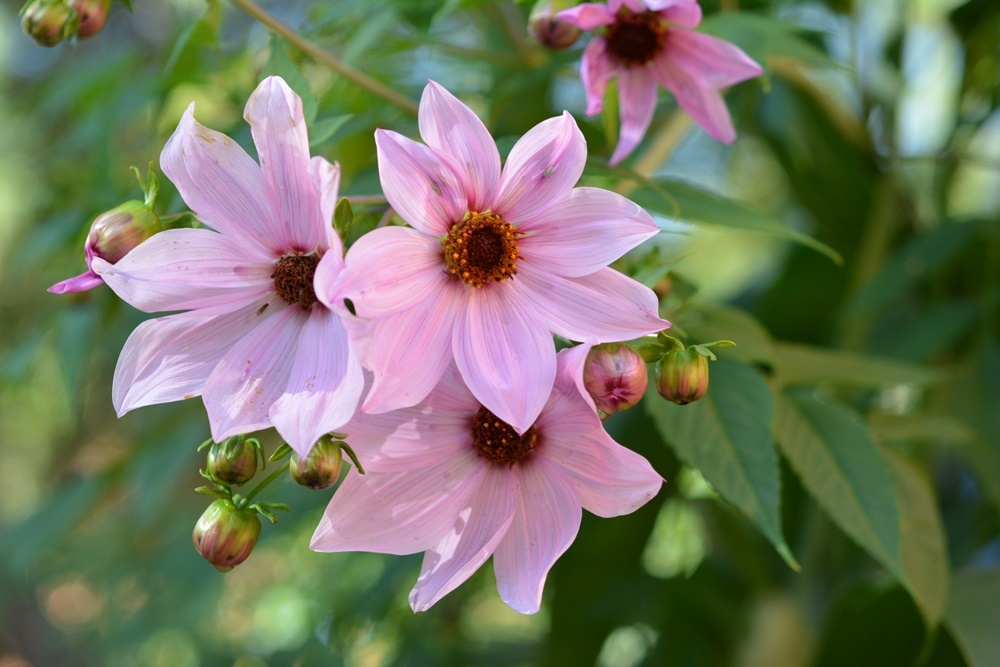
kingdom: Plantae
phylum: Tracheophyta
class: Magnoliopsida
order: Asterales
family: Asteraceae
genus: Dahlia
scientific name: Dahlia imperialis
